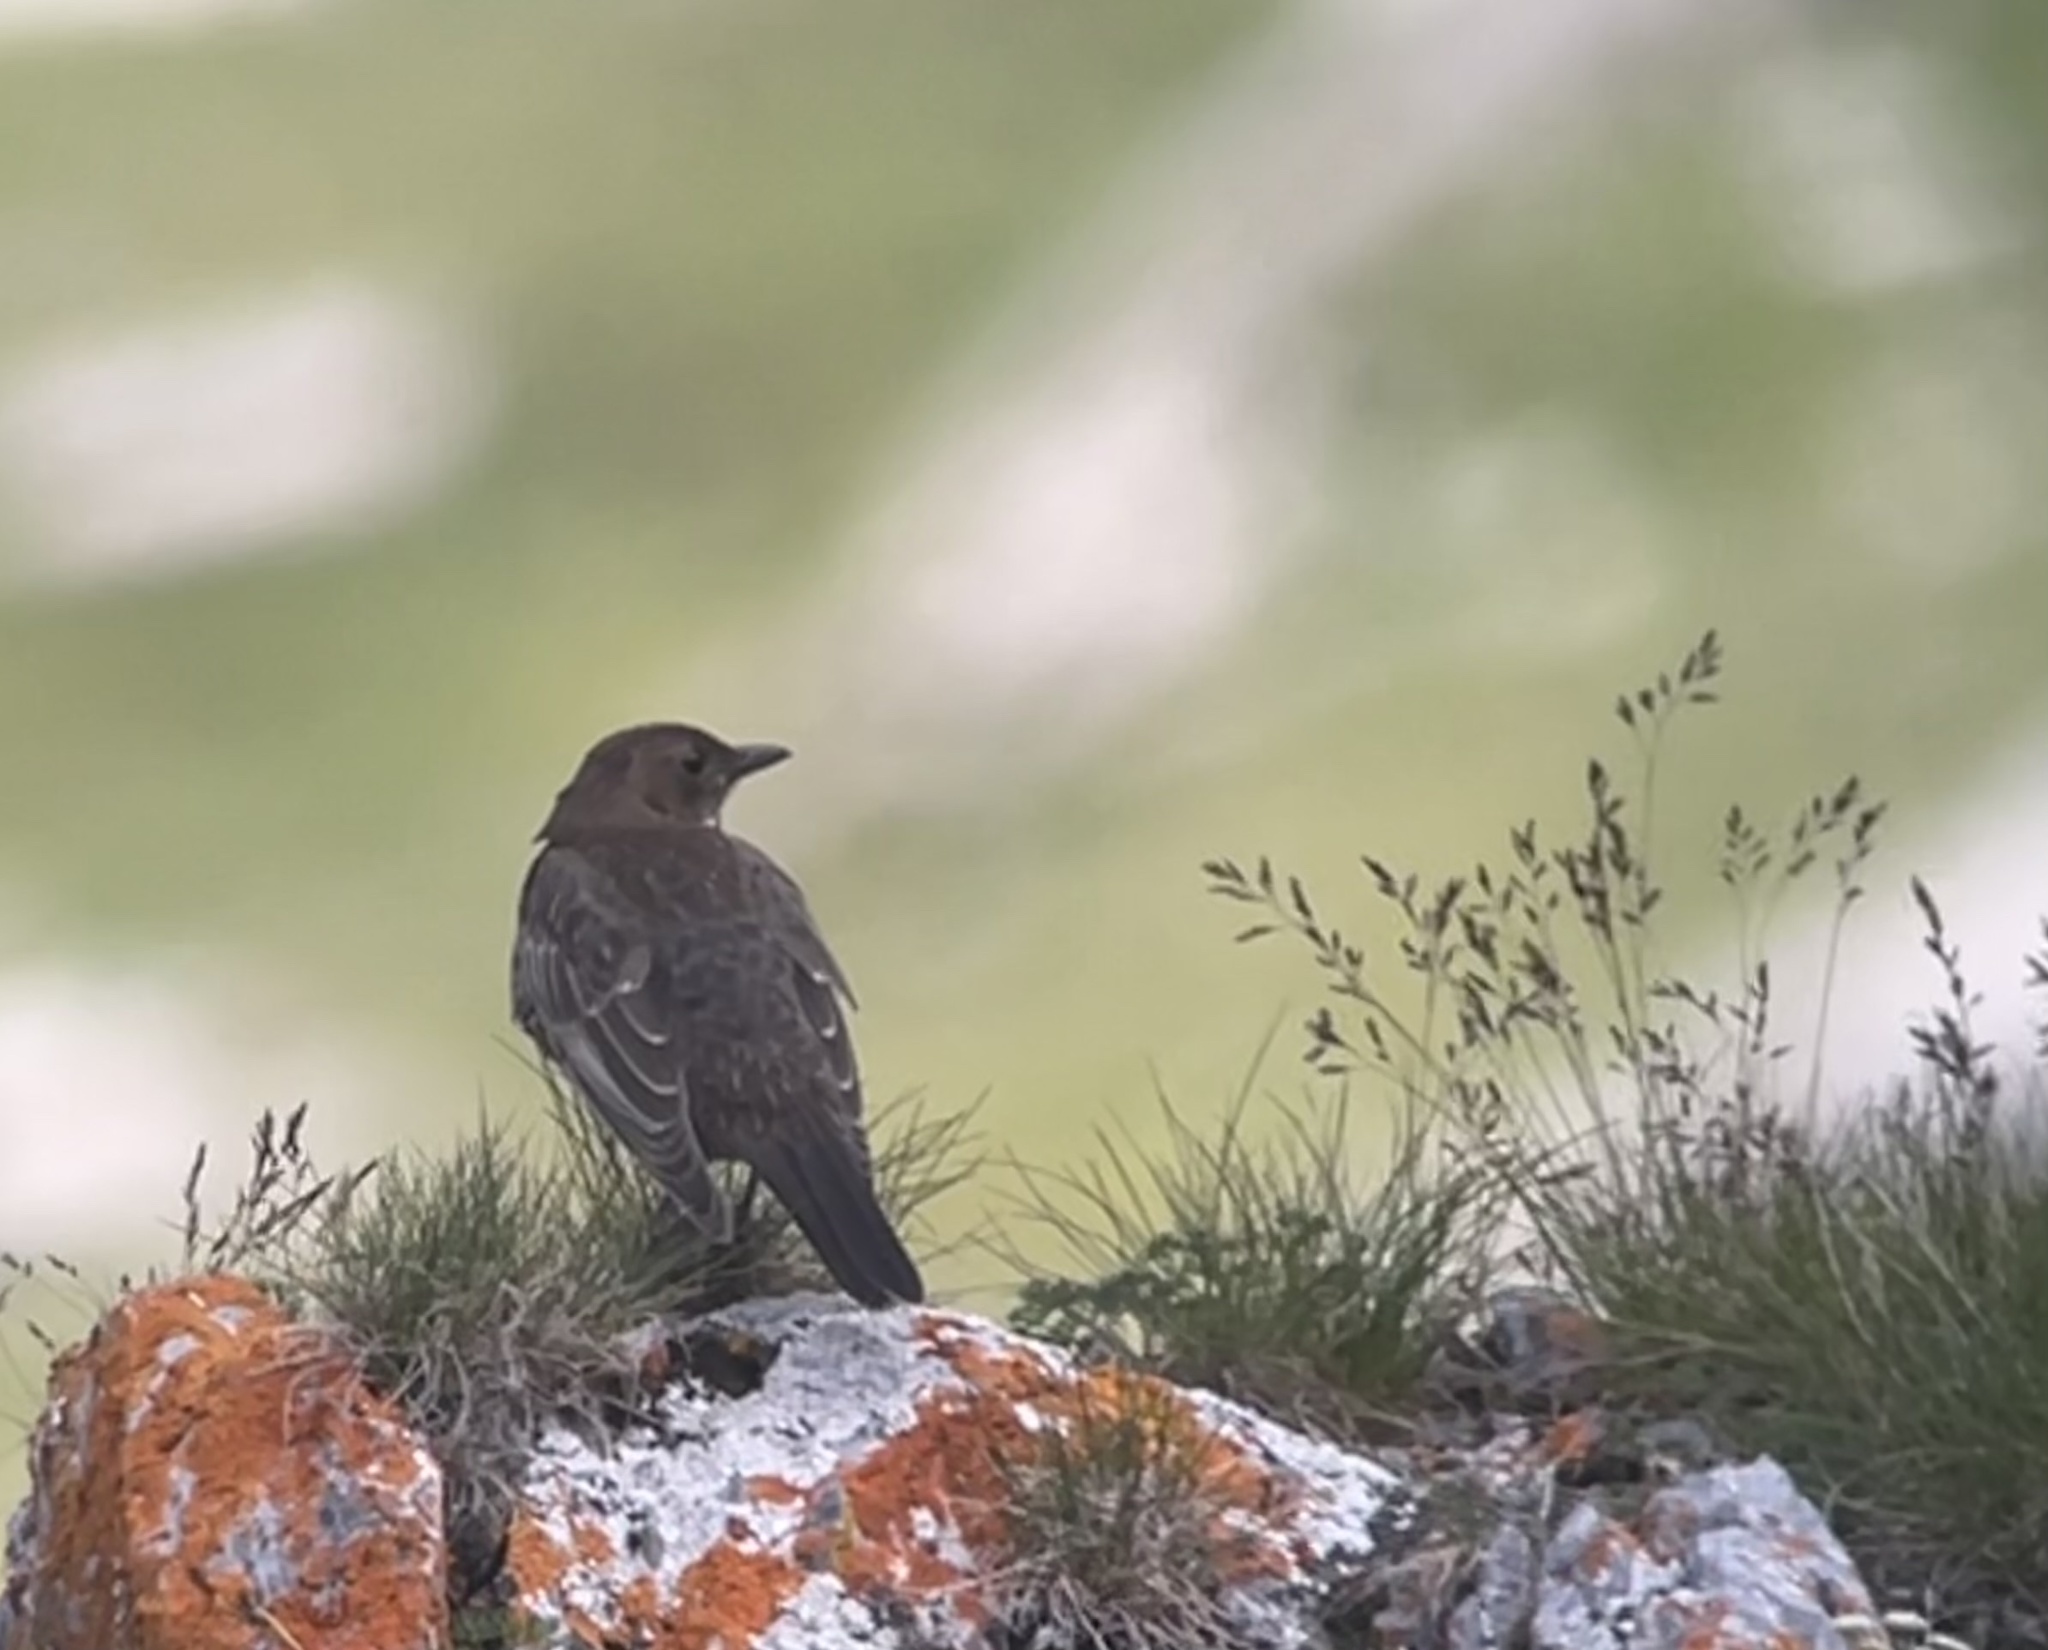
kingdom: Animalia
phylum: Chordata
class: Aves
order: Passeriformes
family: Turdidae
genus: Turdus
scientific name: Turdus torquatus
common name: Ring ouzel
